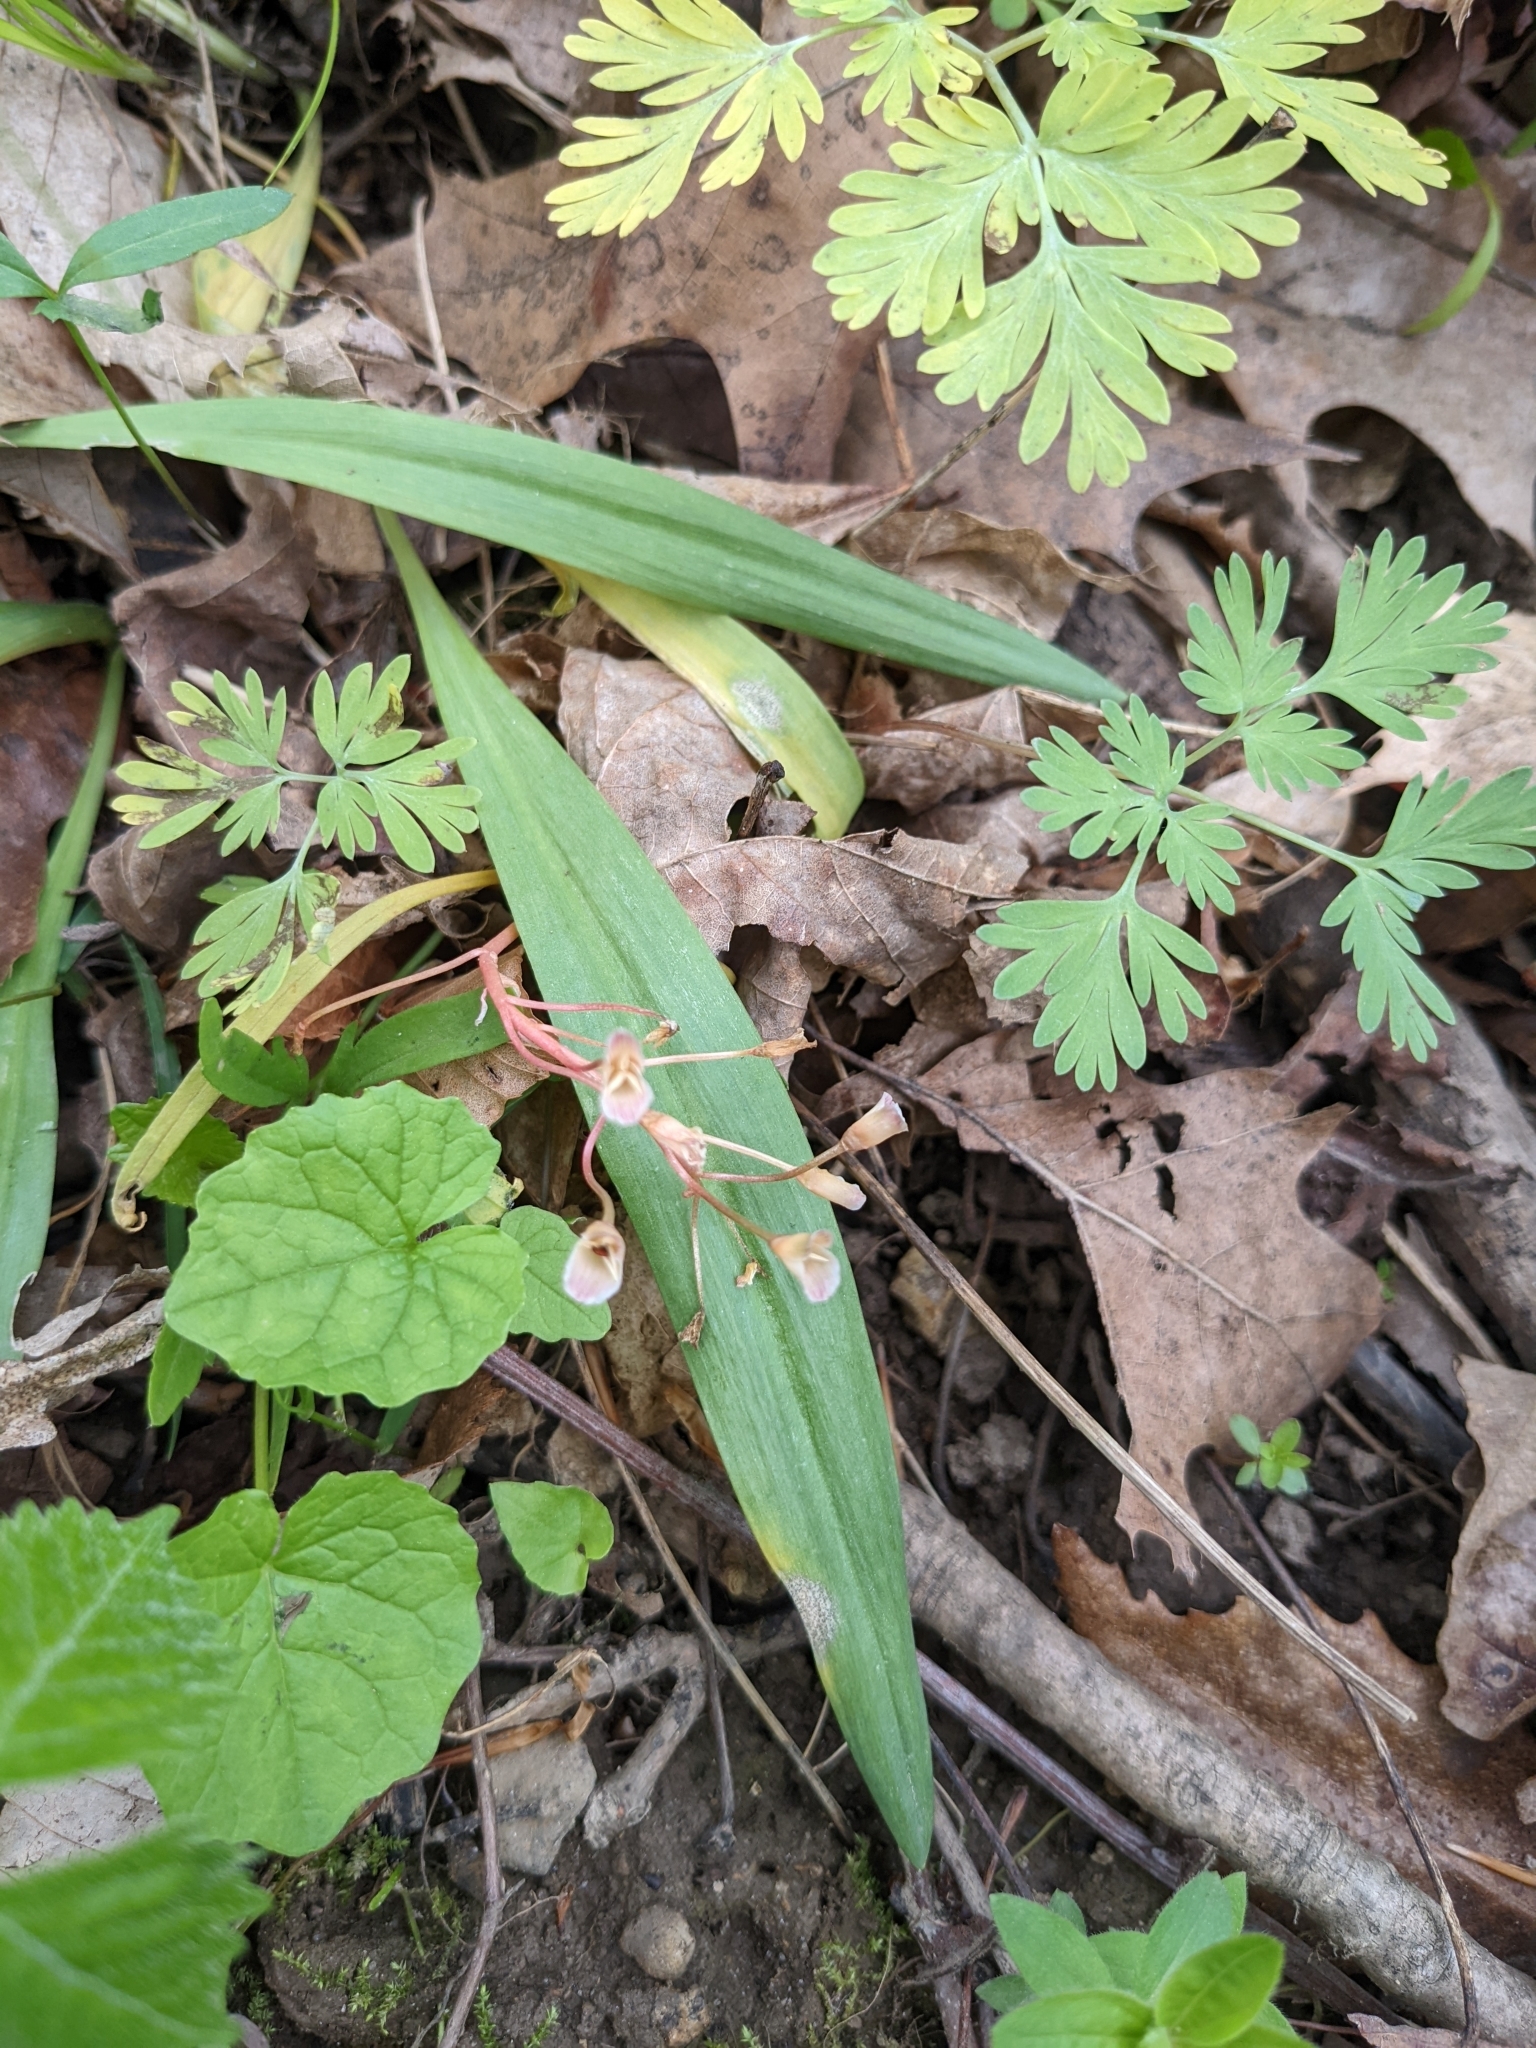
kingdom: Plantae
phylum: Tracheophyta
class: Magnoliopsida
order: Caryophyllales
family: Montiaceae
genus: Claytonia
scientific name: Claytonia virginica
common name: Virginia springbeauty
